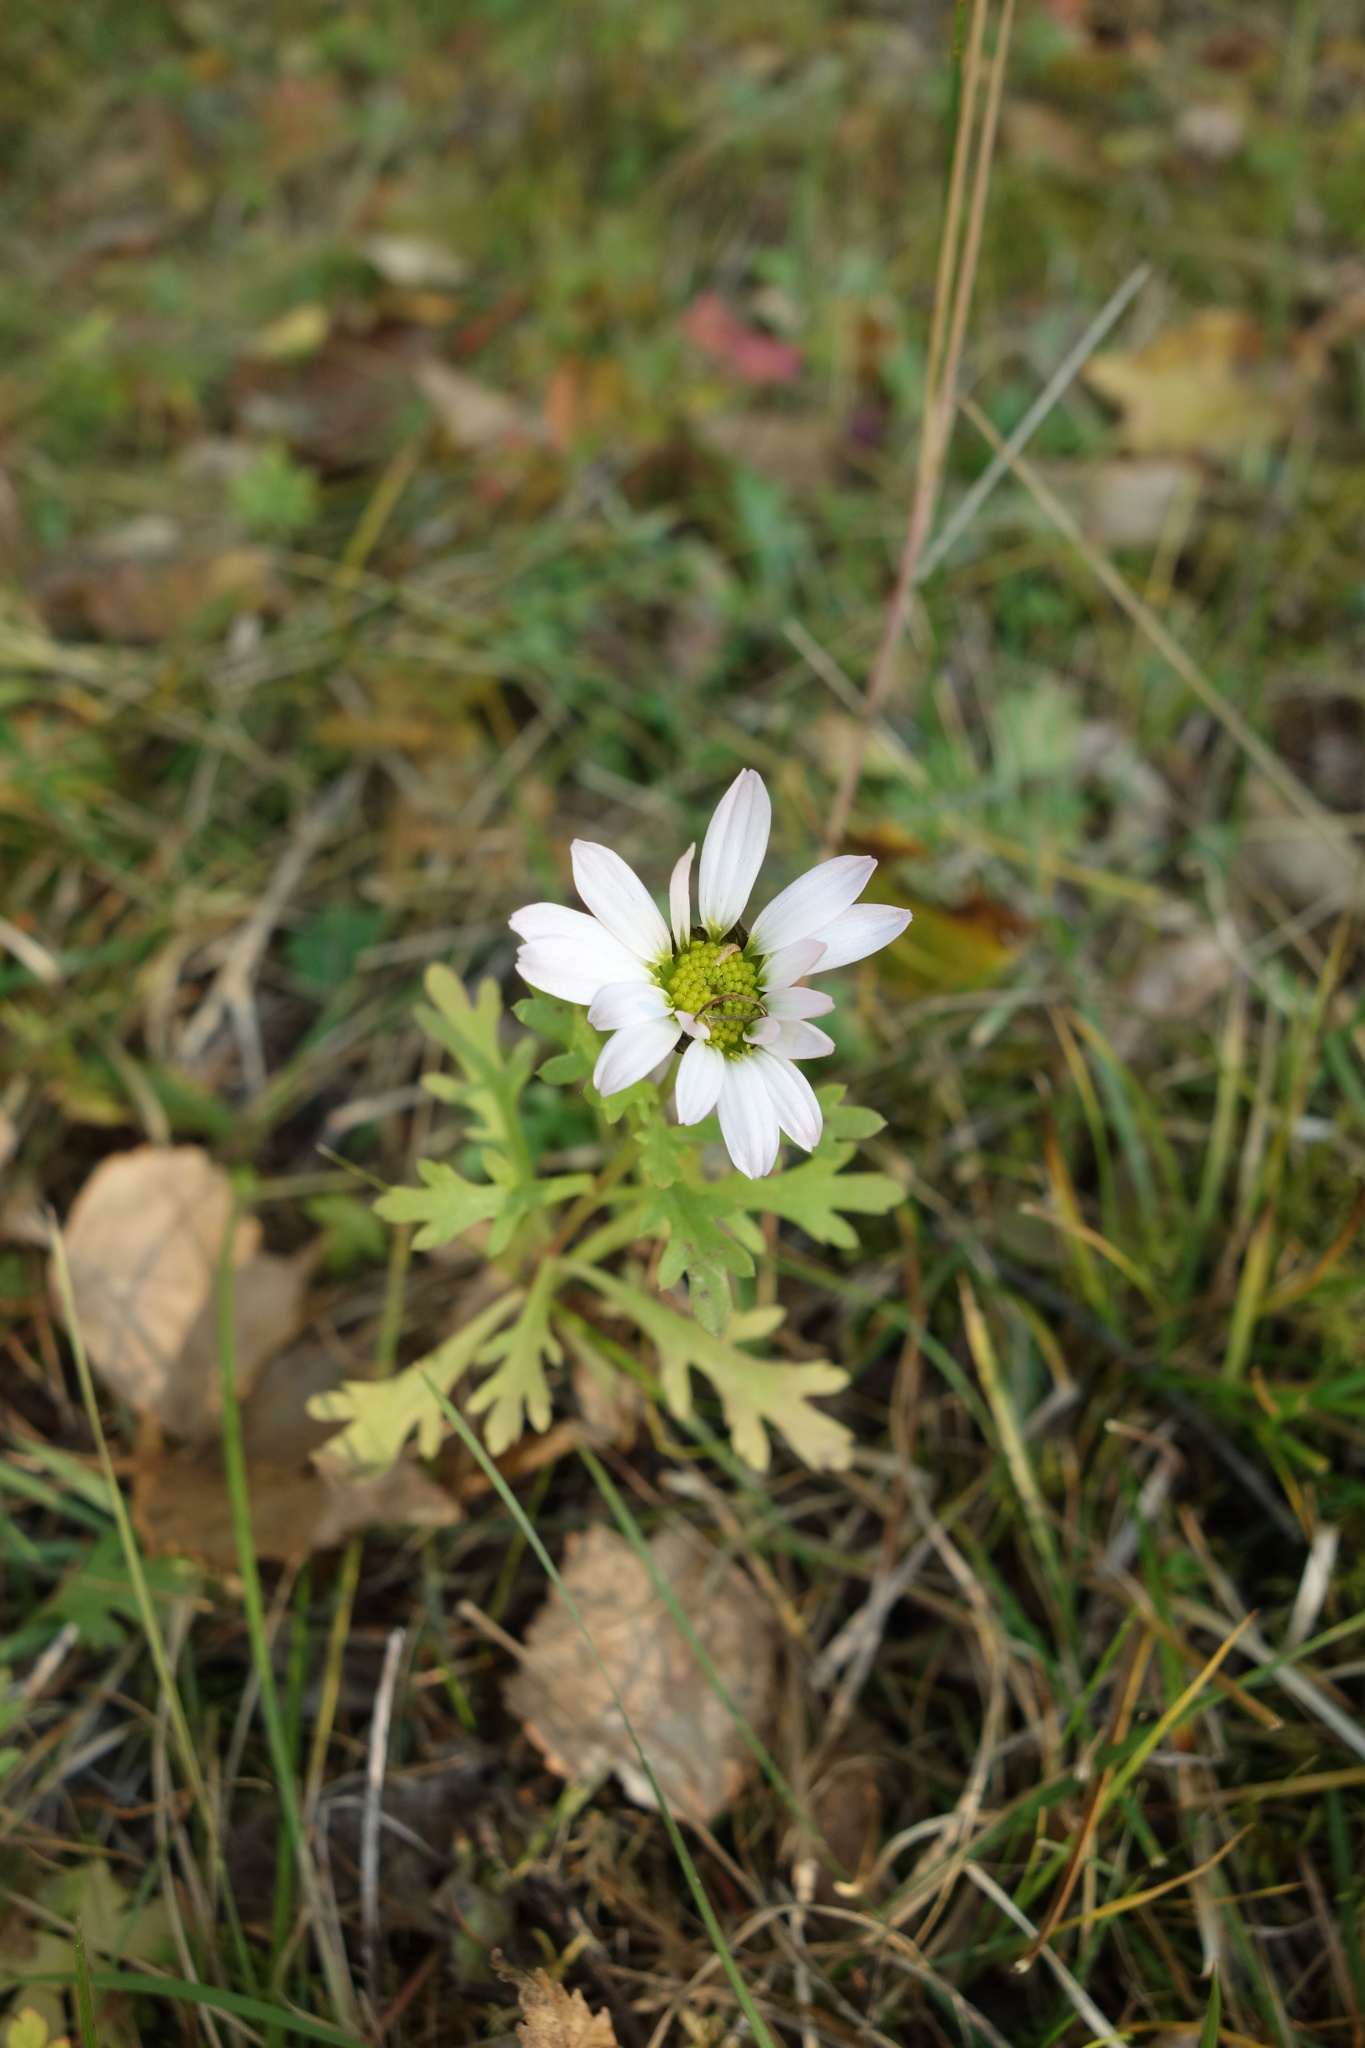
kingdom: Plantae
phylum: Tracheophyta
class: Magnoliopsida
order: Asterales
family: Asteraceae
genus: Chrysanthemum
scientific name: Chrysanthemum zawadzkii
